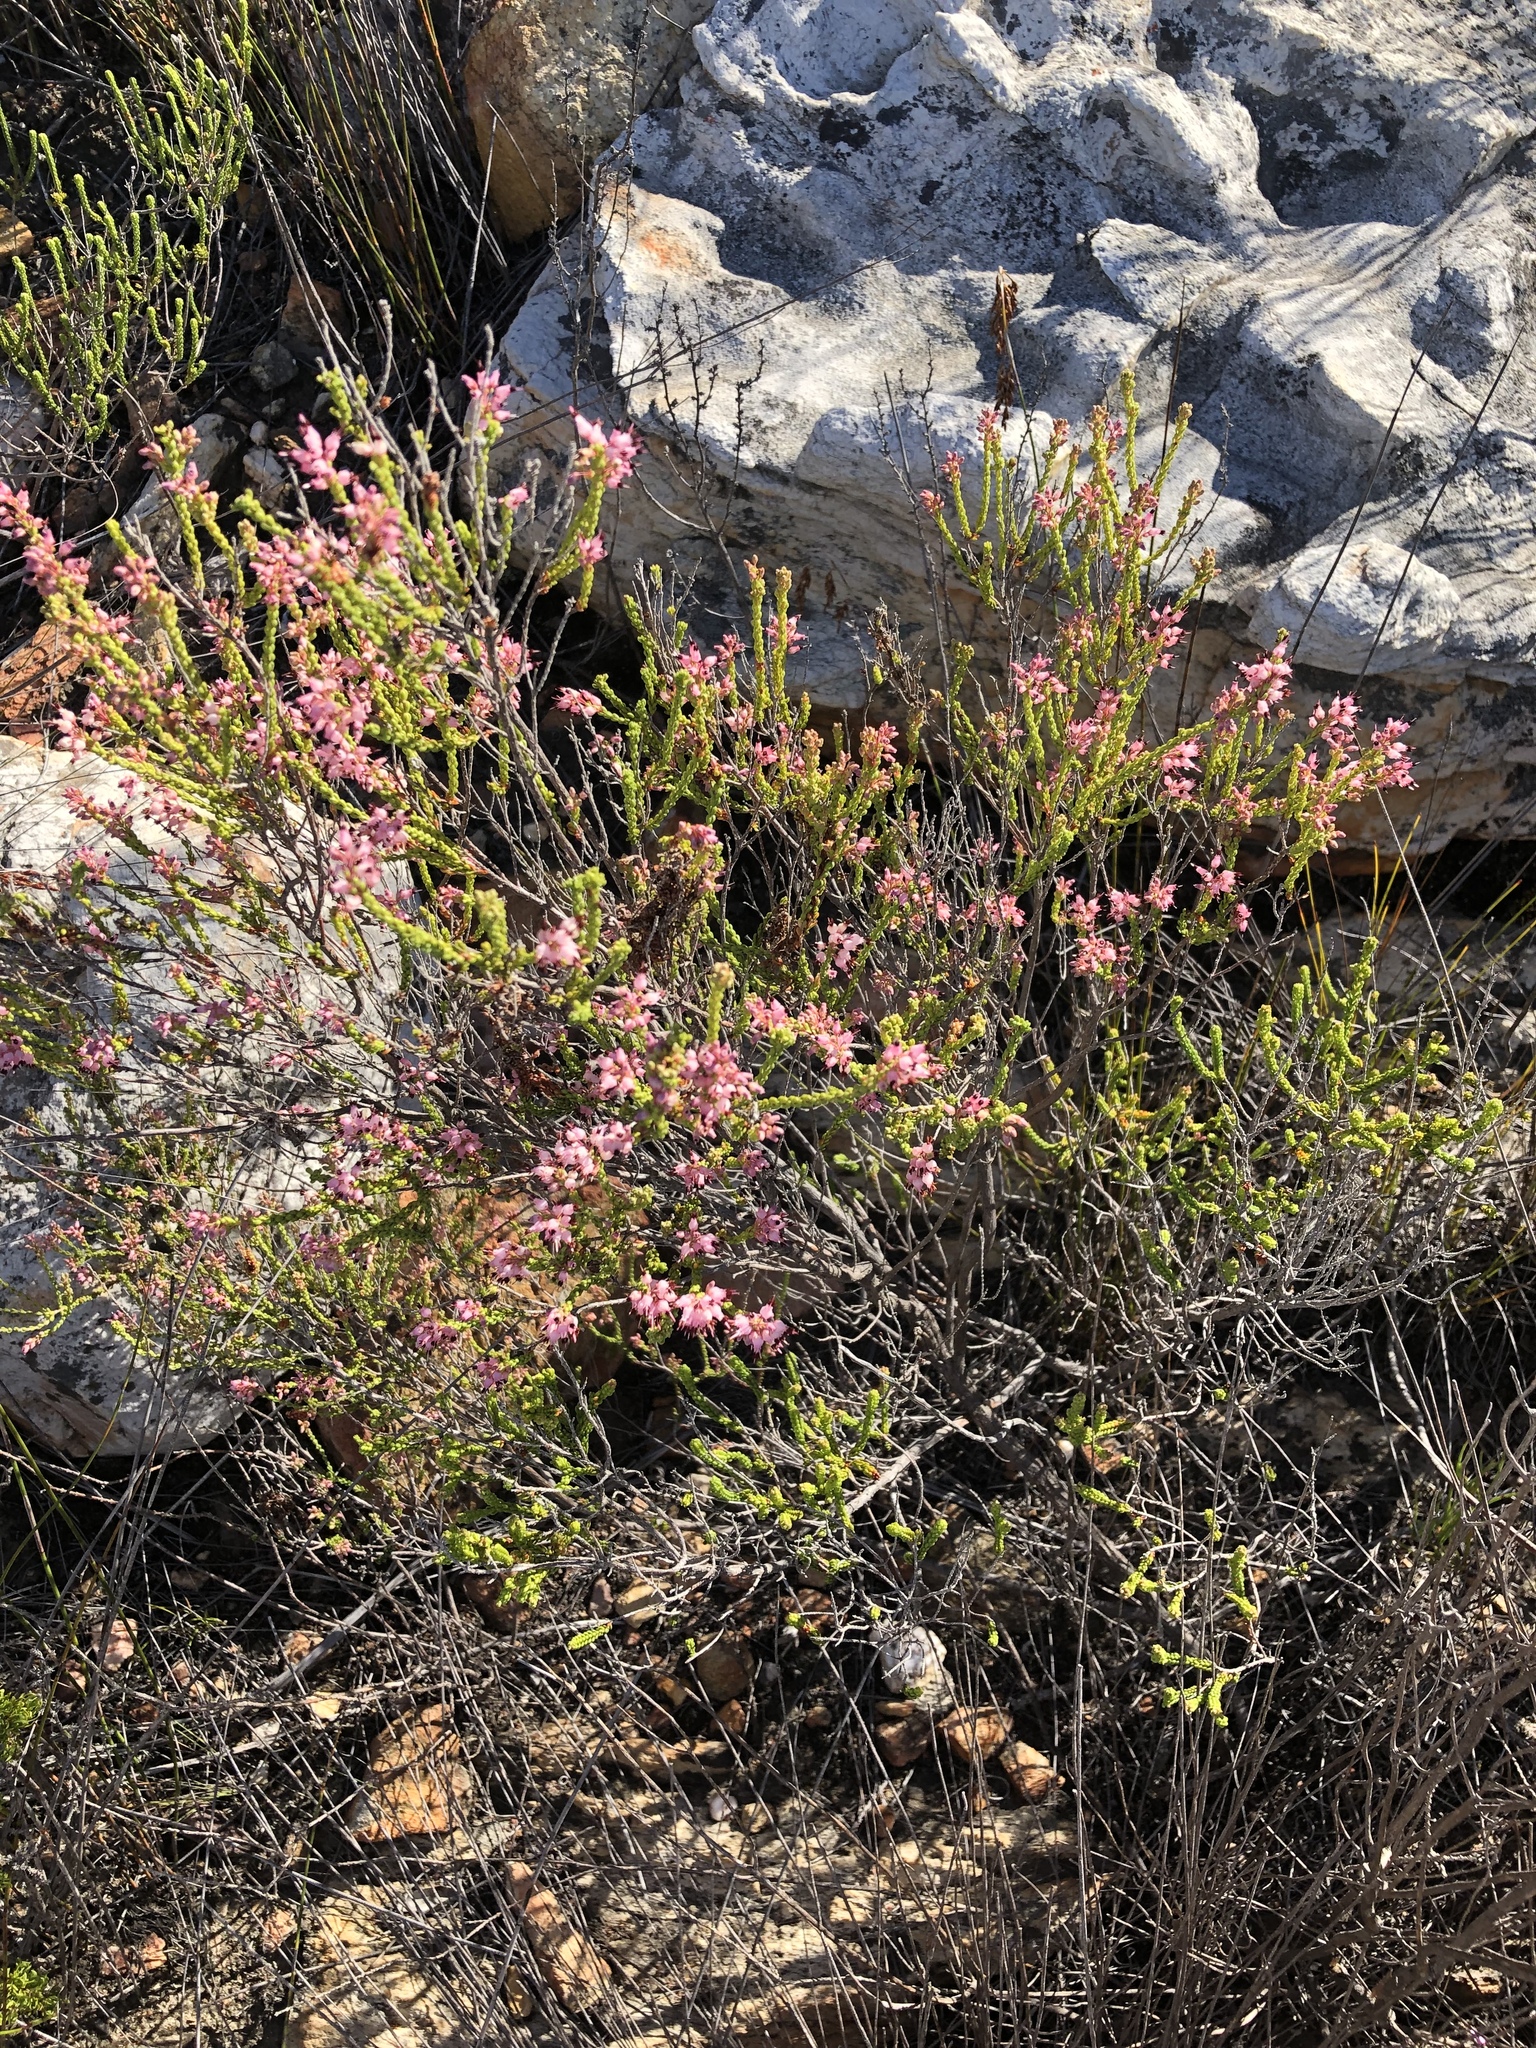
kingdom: Plantae
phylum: Tracheophyta
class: Magnoliopsida
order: Ericales
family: Ericaceae
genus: Erica
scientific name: Erica petraea
